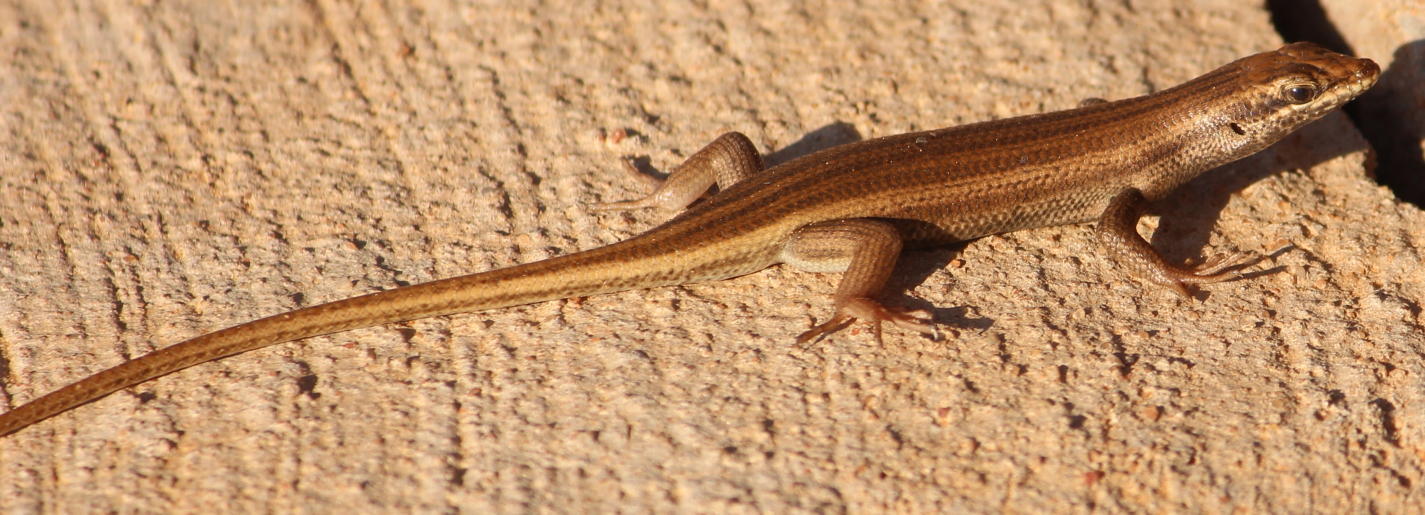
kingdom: Animalia
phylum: Chordata
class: Squamata
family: Scincidae
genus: Trachylepis
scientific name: Trachylepis sulcata
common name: Western rock skink
